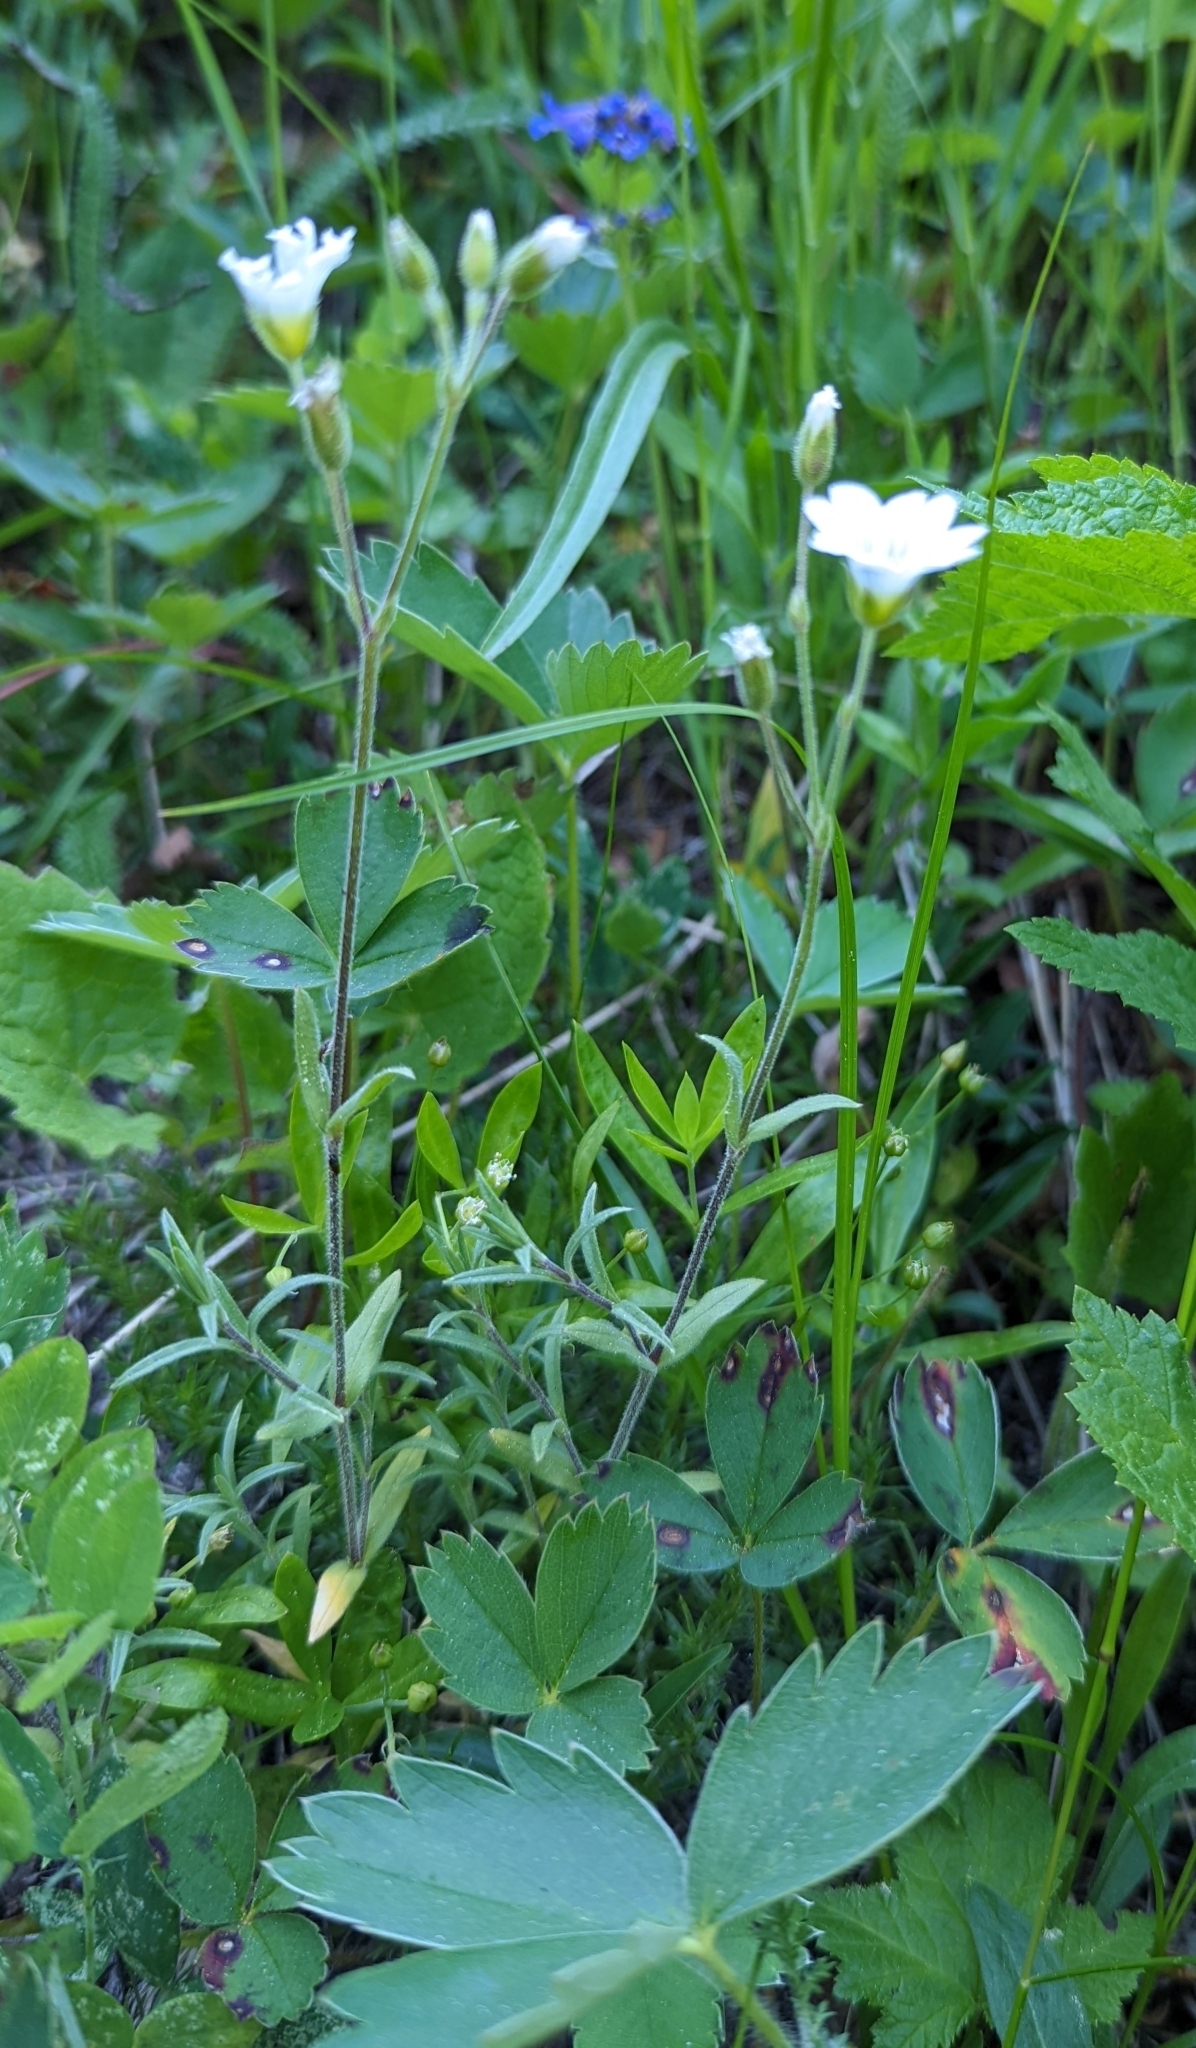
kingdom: Plantae
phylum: Tracheophyta
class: Magnoliopsida
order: Caryophyllales
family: Caryophyllaceae
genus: Cerastium
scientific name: Cerastium arvense
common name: Field mouse-ear
